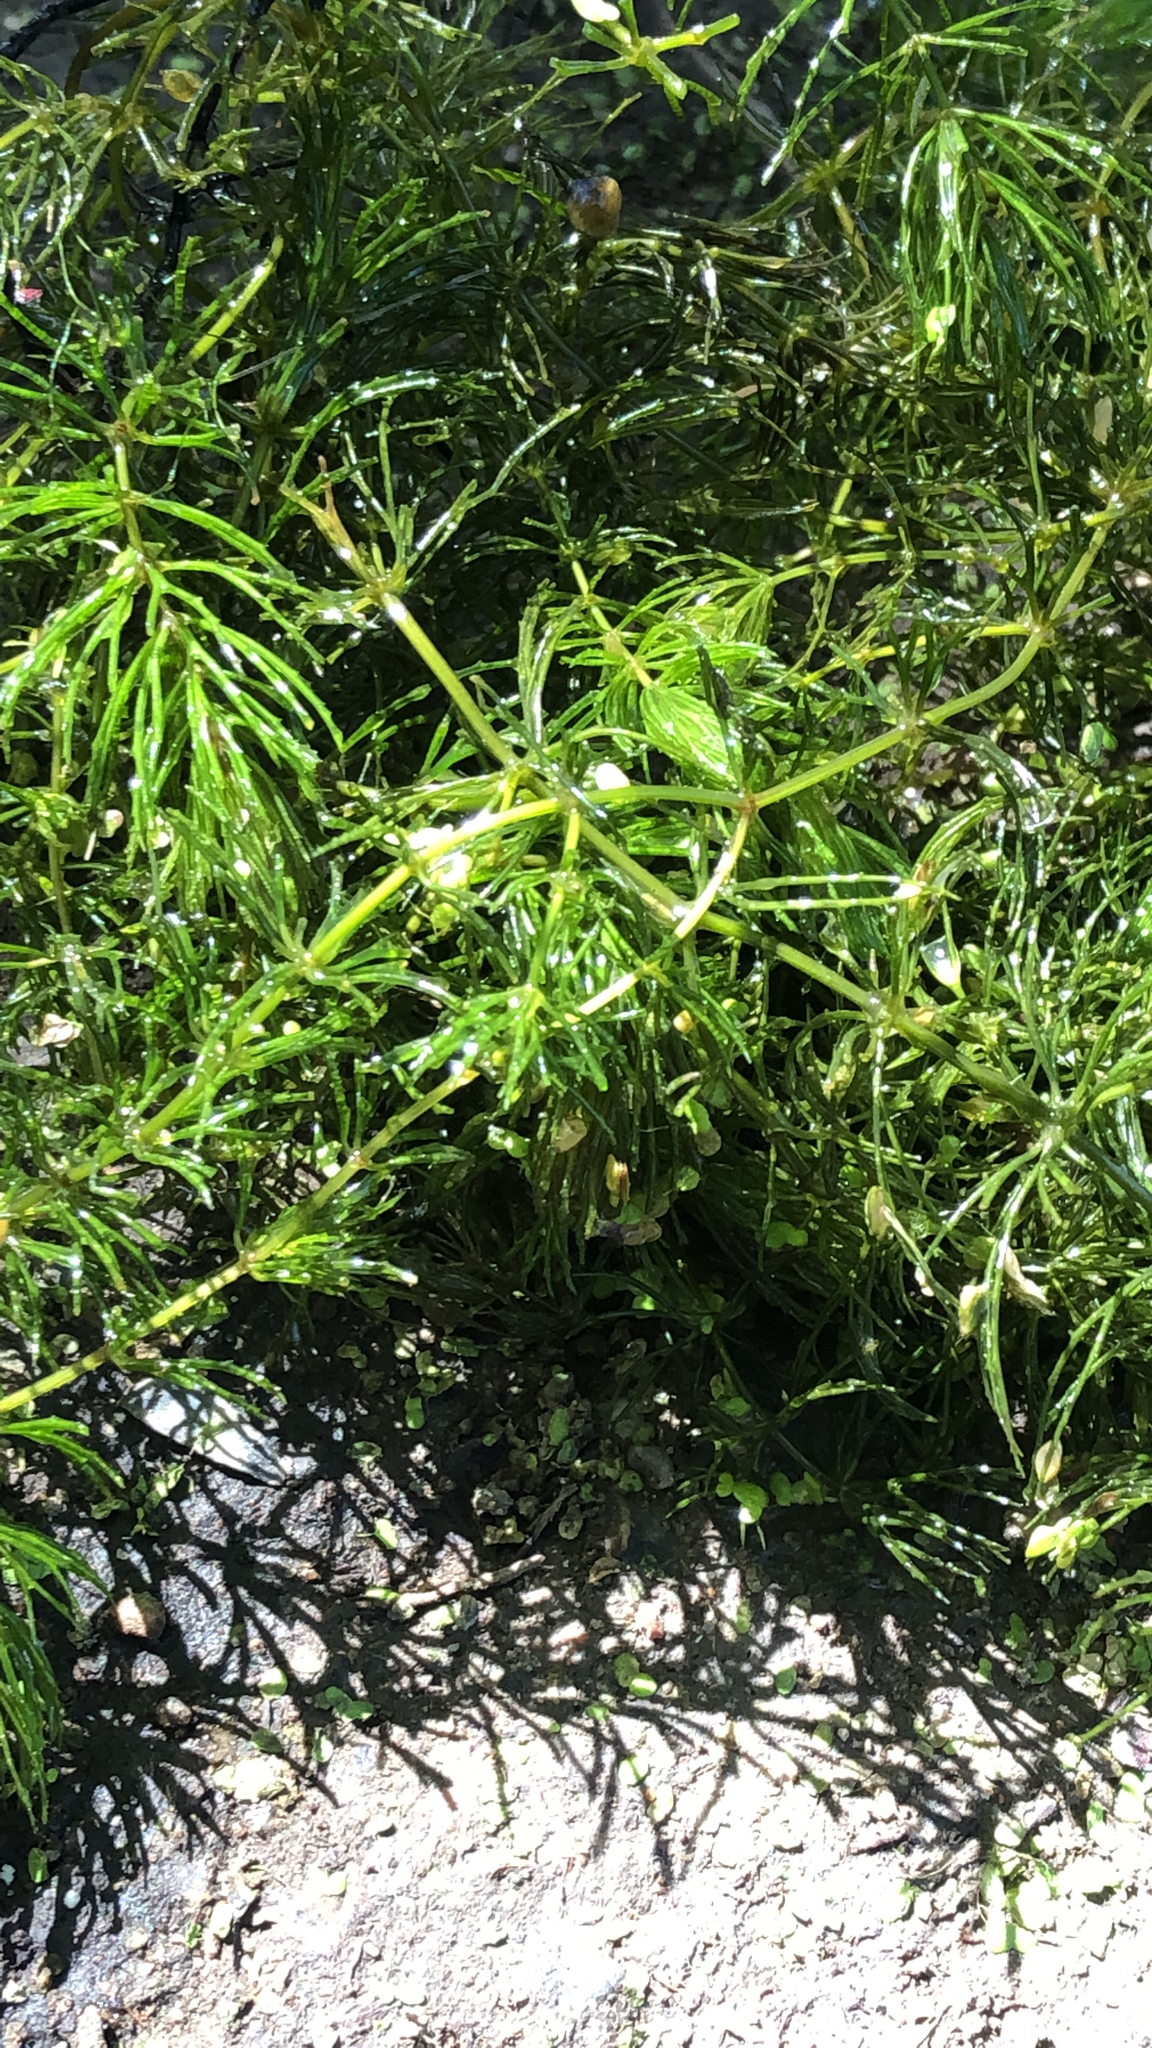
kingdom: Plantae
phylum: Tracheophyta
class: Magnoliopsida
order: Ceratophyllales
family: Ceratophyllaceae
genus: Ceratophyllum
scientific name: Ceratophyllum demersum
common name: Rigid hornwort
